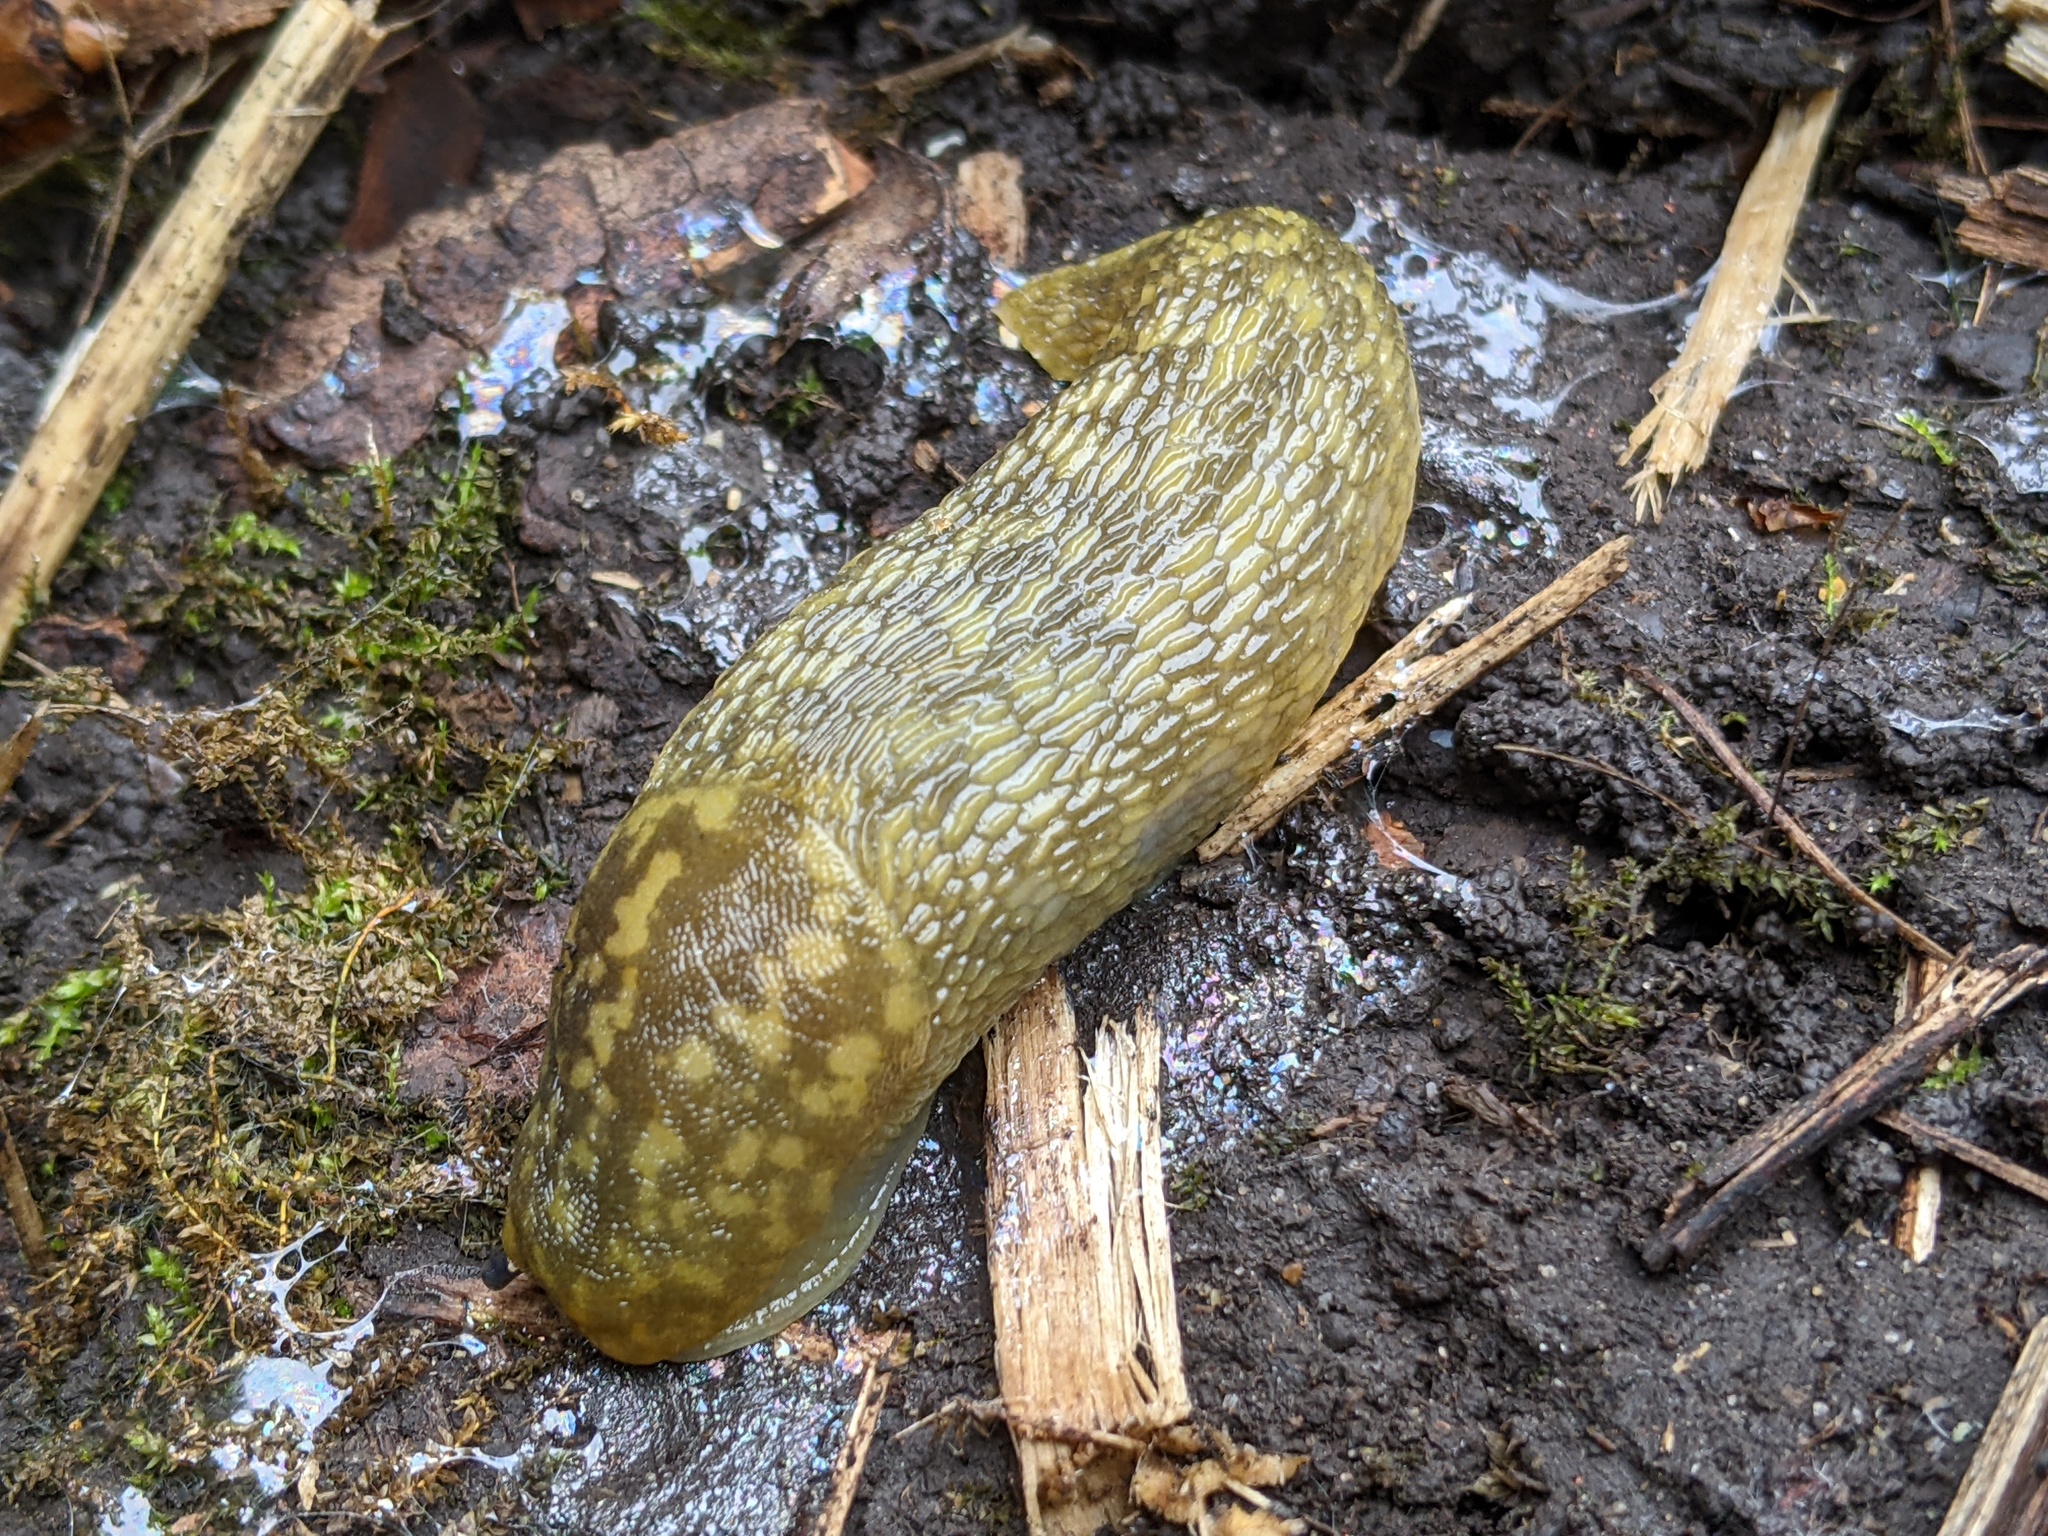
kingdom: Animalia
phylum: Mollusca
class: Gastropoda
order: Stylommatophora
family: Limacidae
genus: Limacus
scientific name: Limacus maculatus
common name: Irish yellow slug
